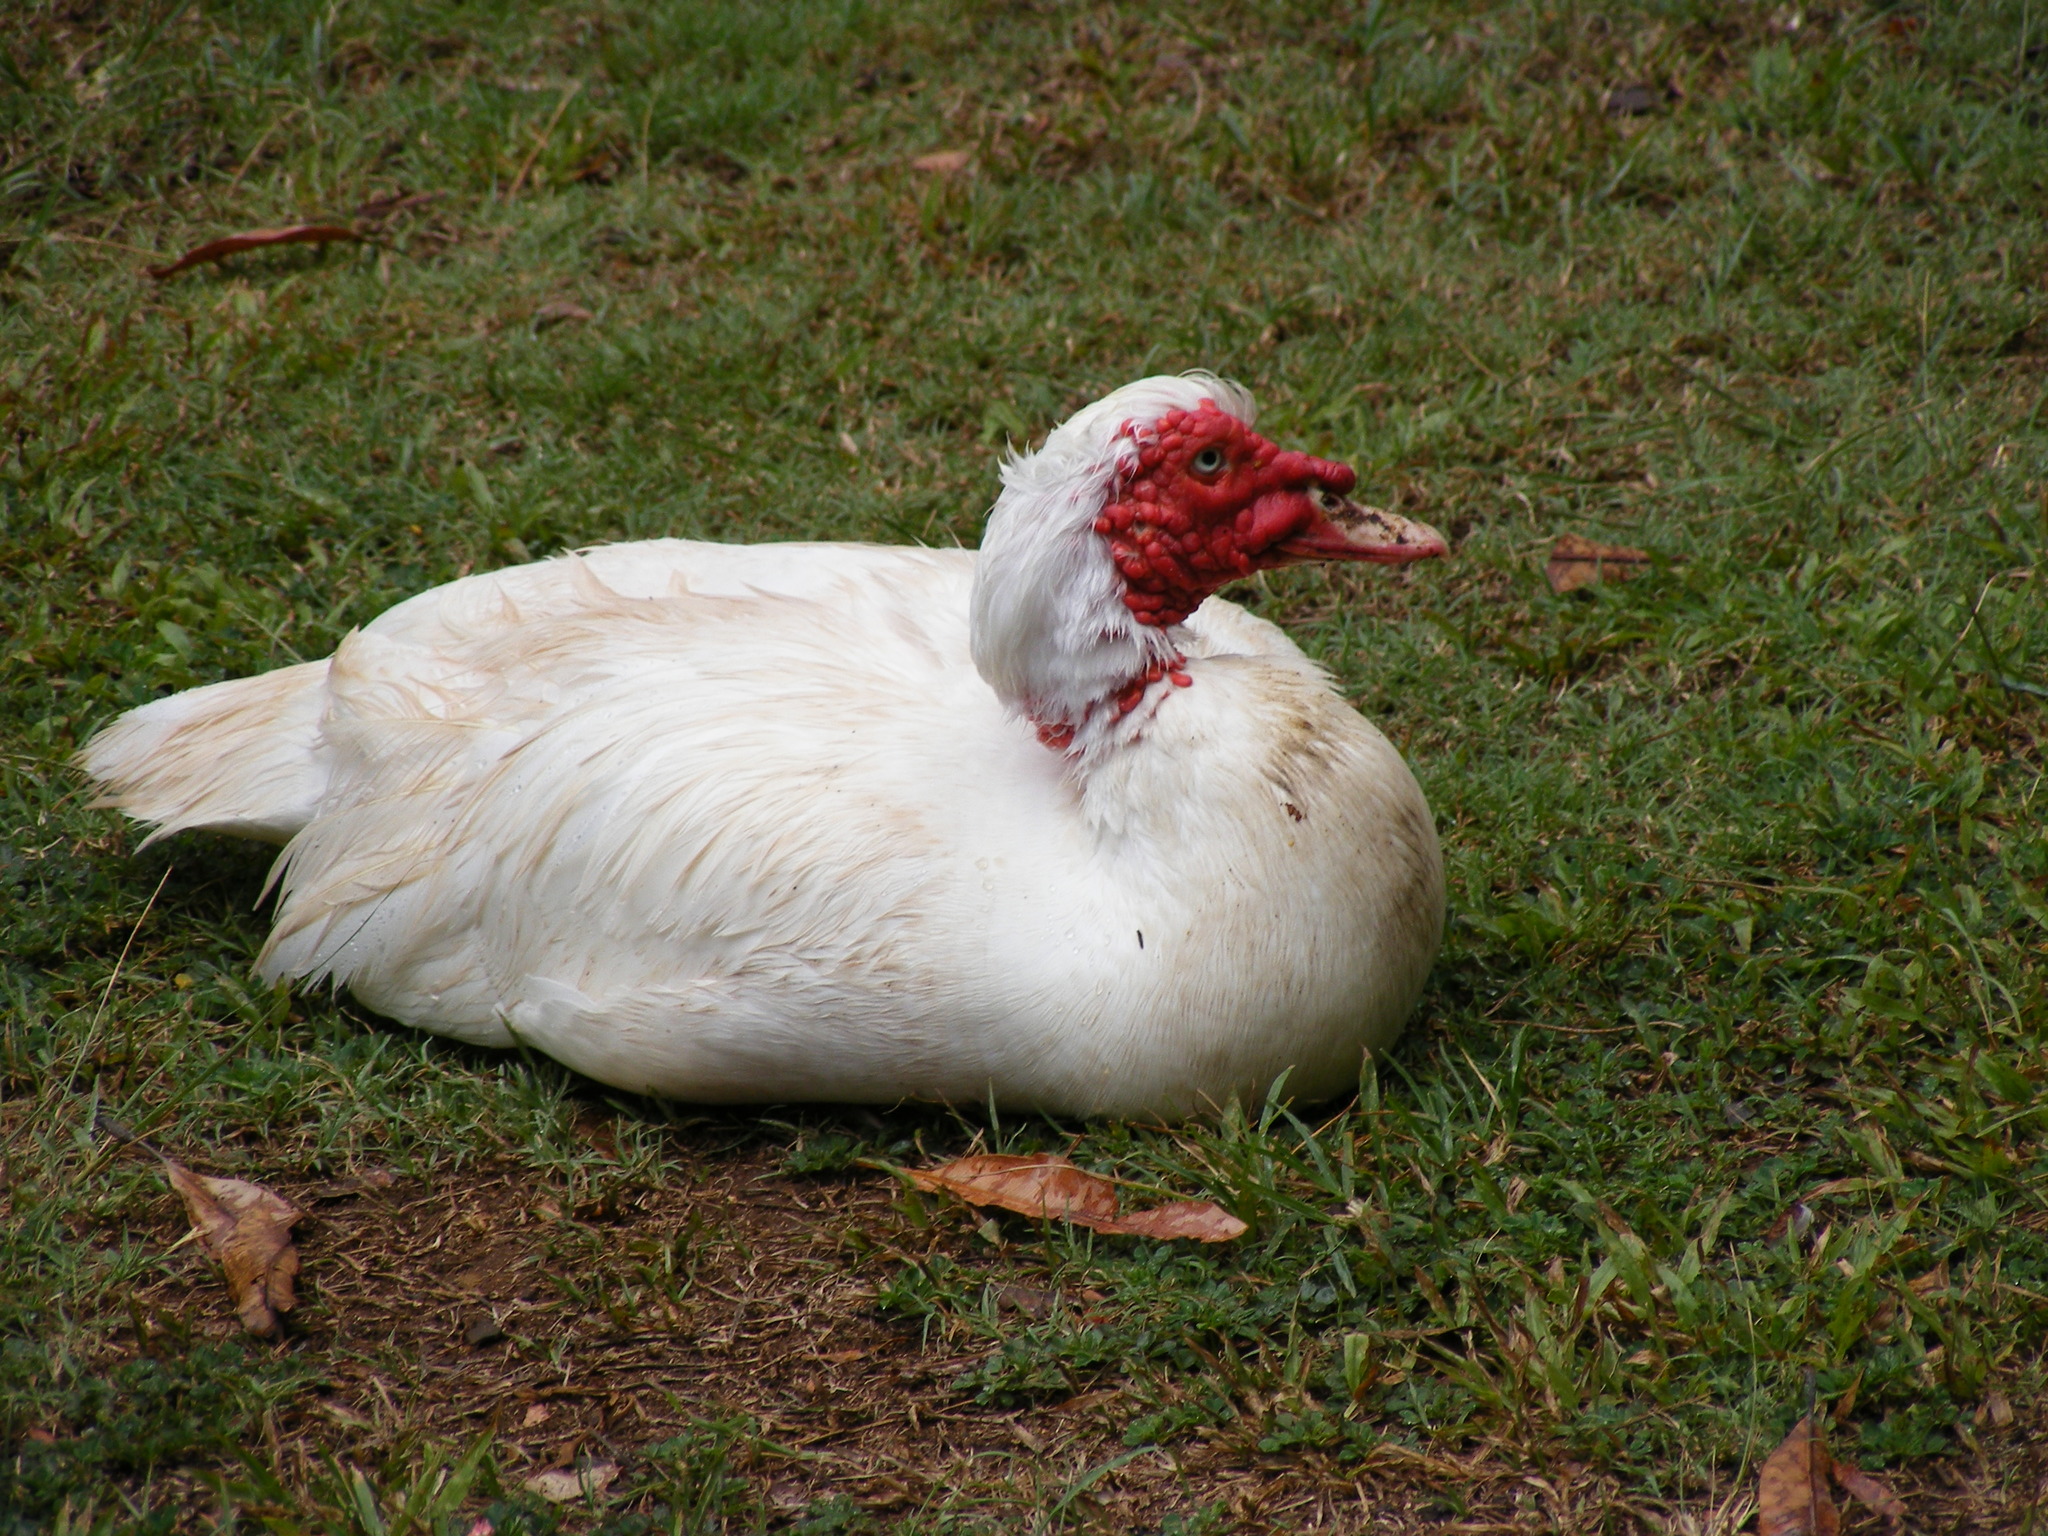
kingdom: Animalia
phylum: Chordata
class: Aves
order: Anseriformes
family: Anatidae
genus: Cairina
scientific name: Cairina moschata
